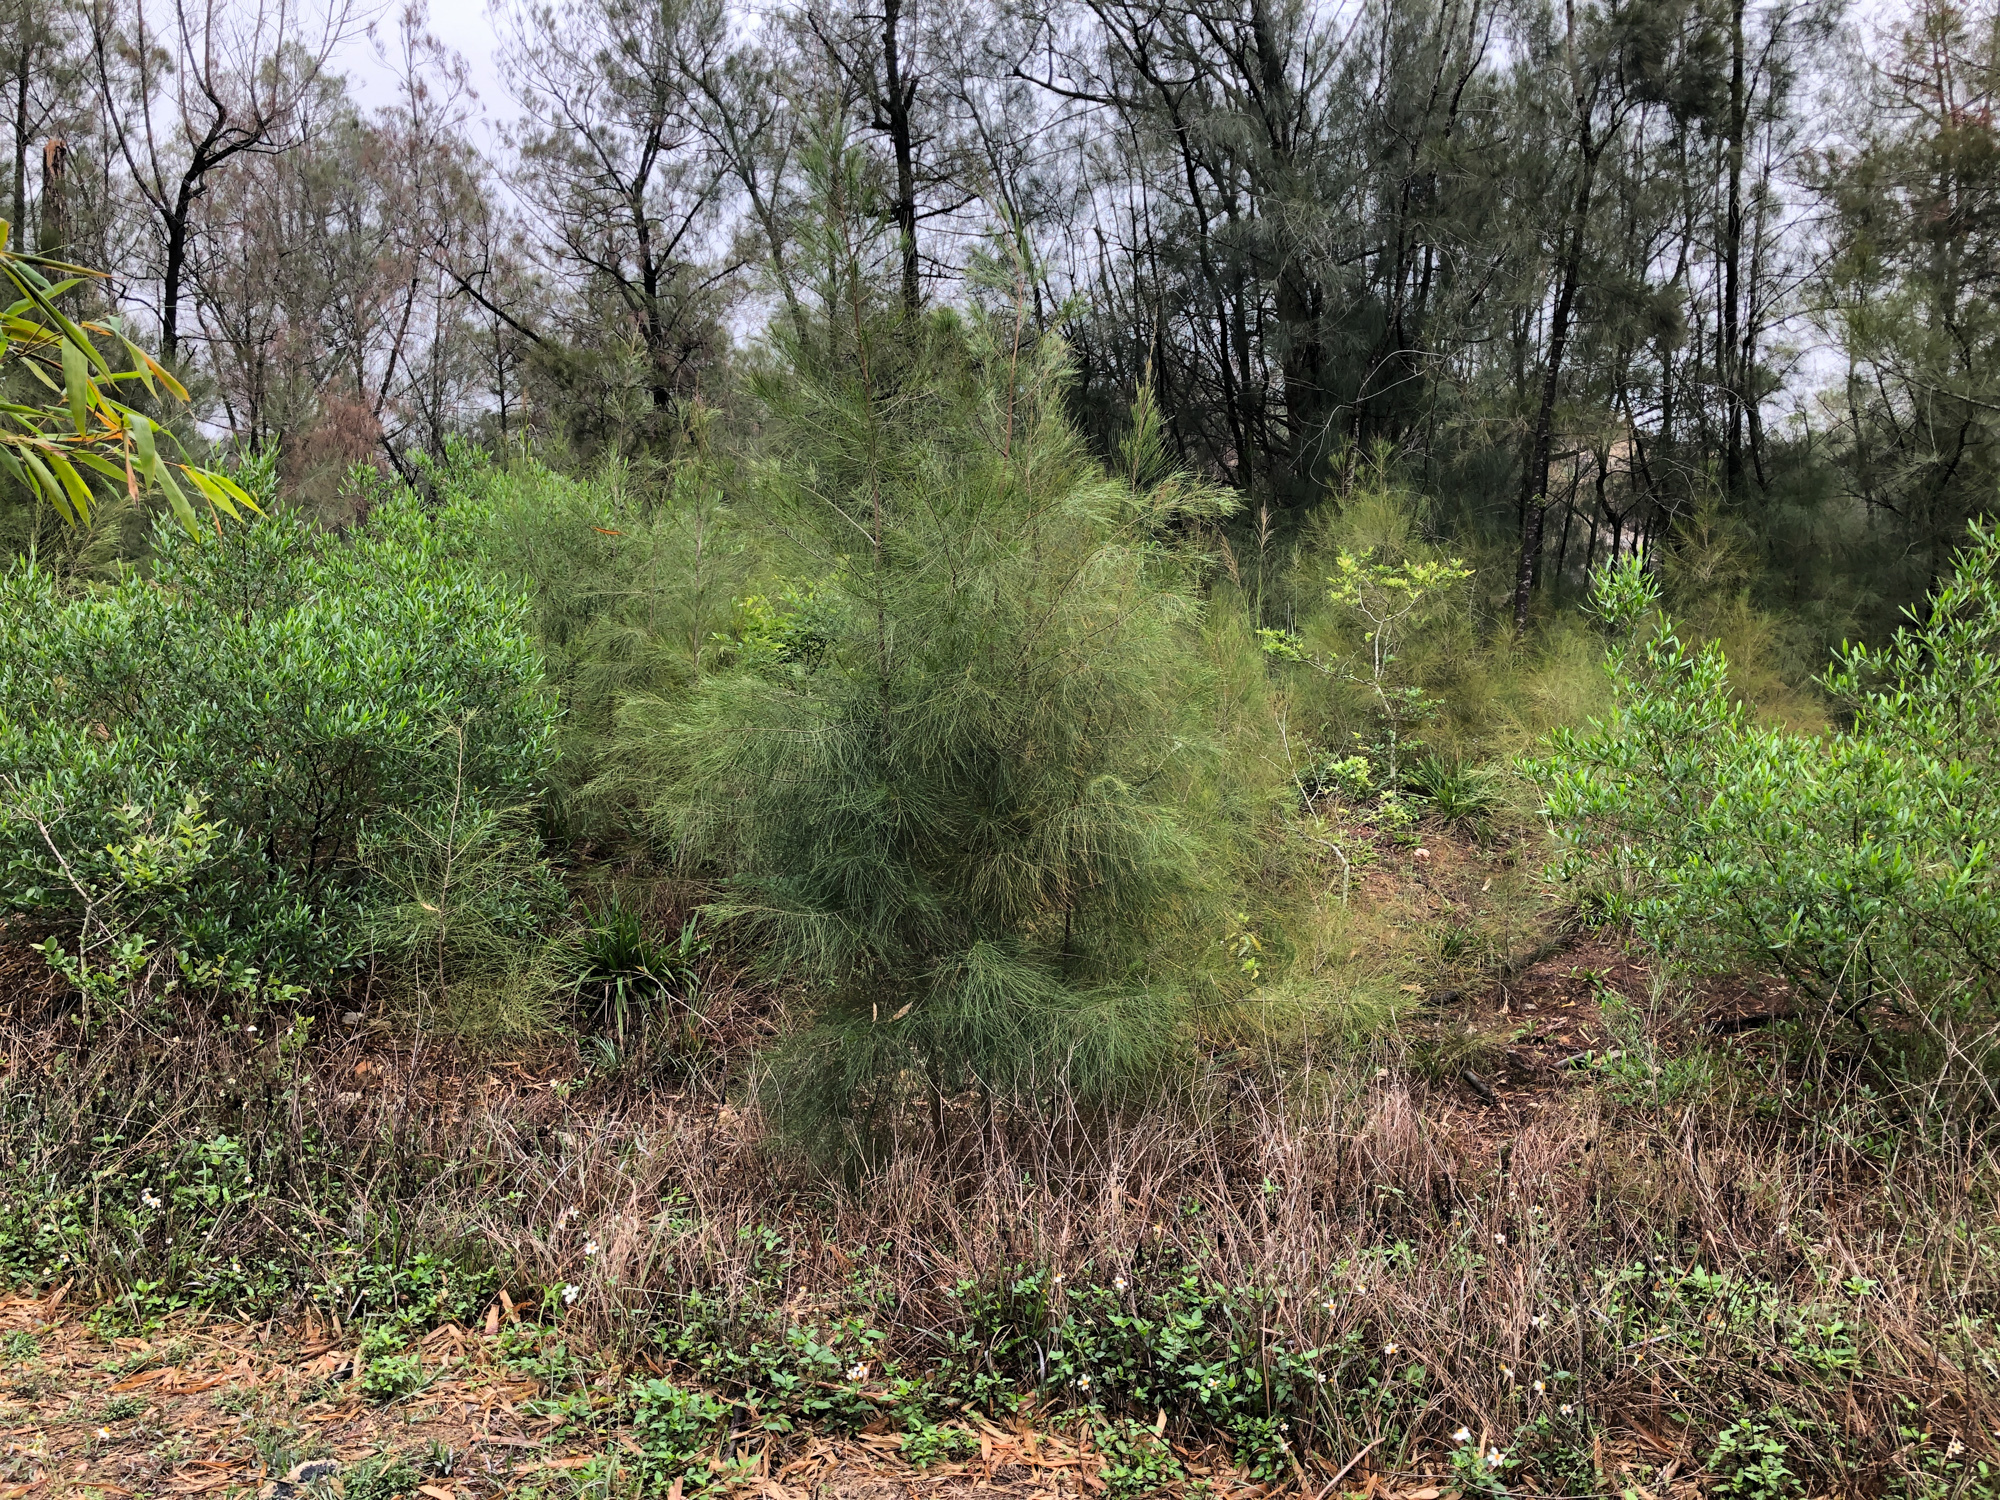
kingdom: Plantae
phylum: Tracheophyta
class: Magnoliopsida
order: Fagales
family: Casuarinaceae
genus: Casuarina
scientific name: Casuarina equisetifolia
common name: Beach sheoak
